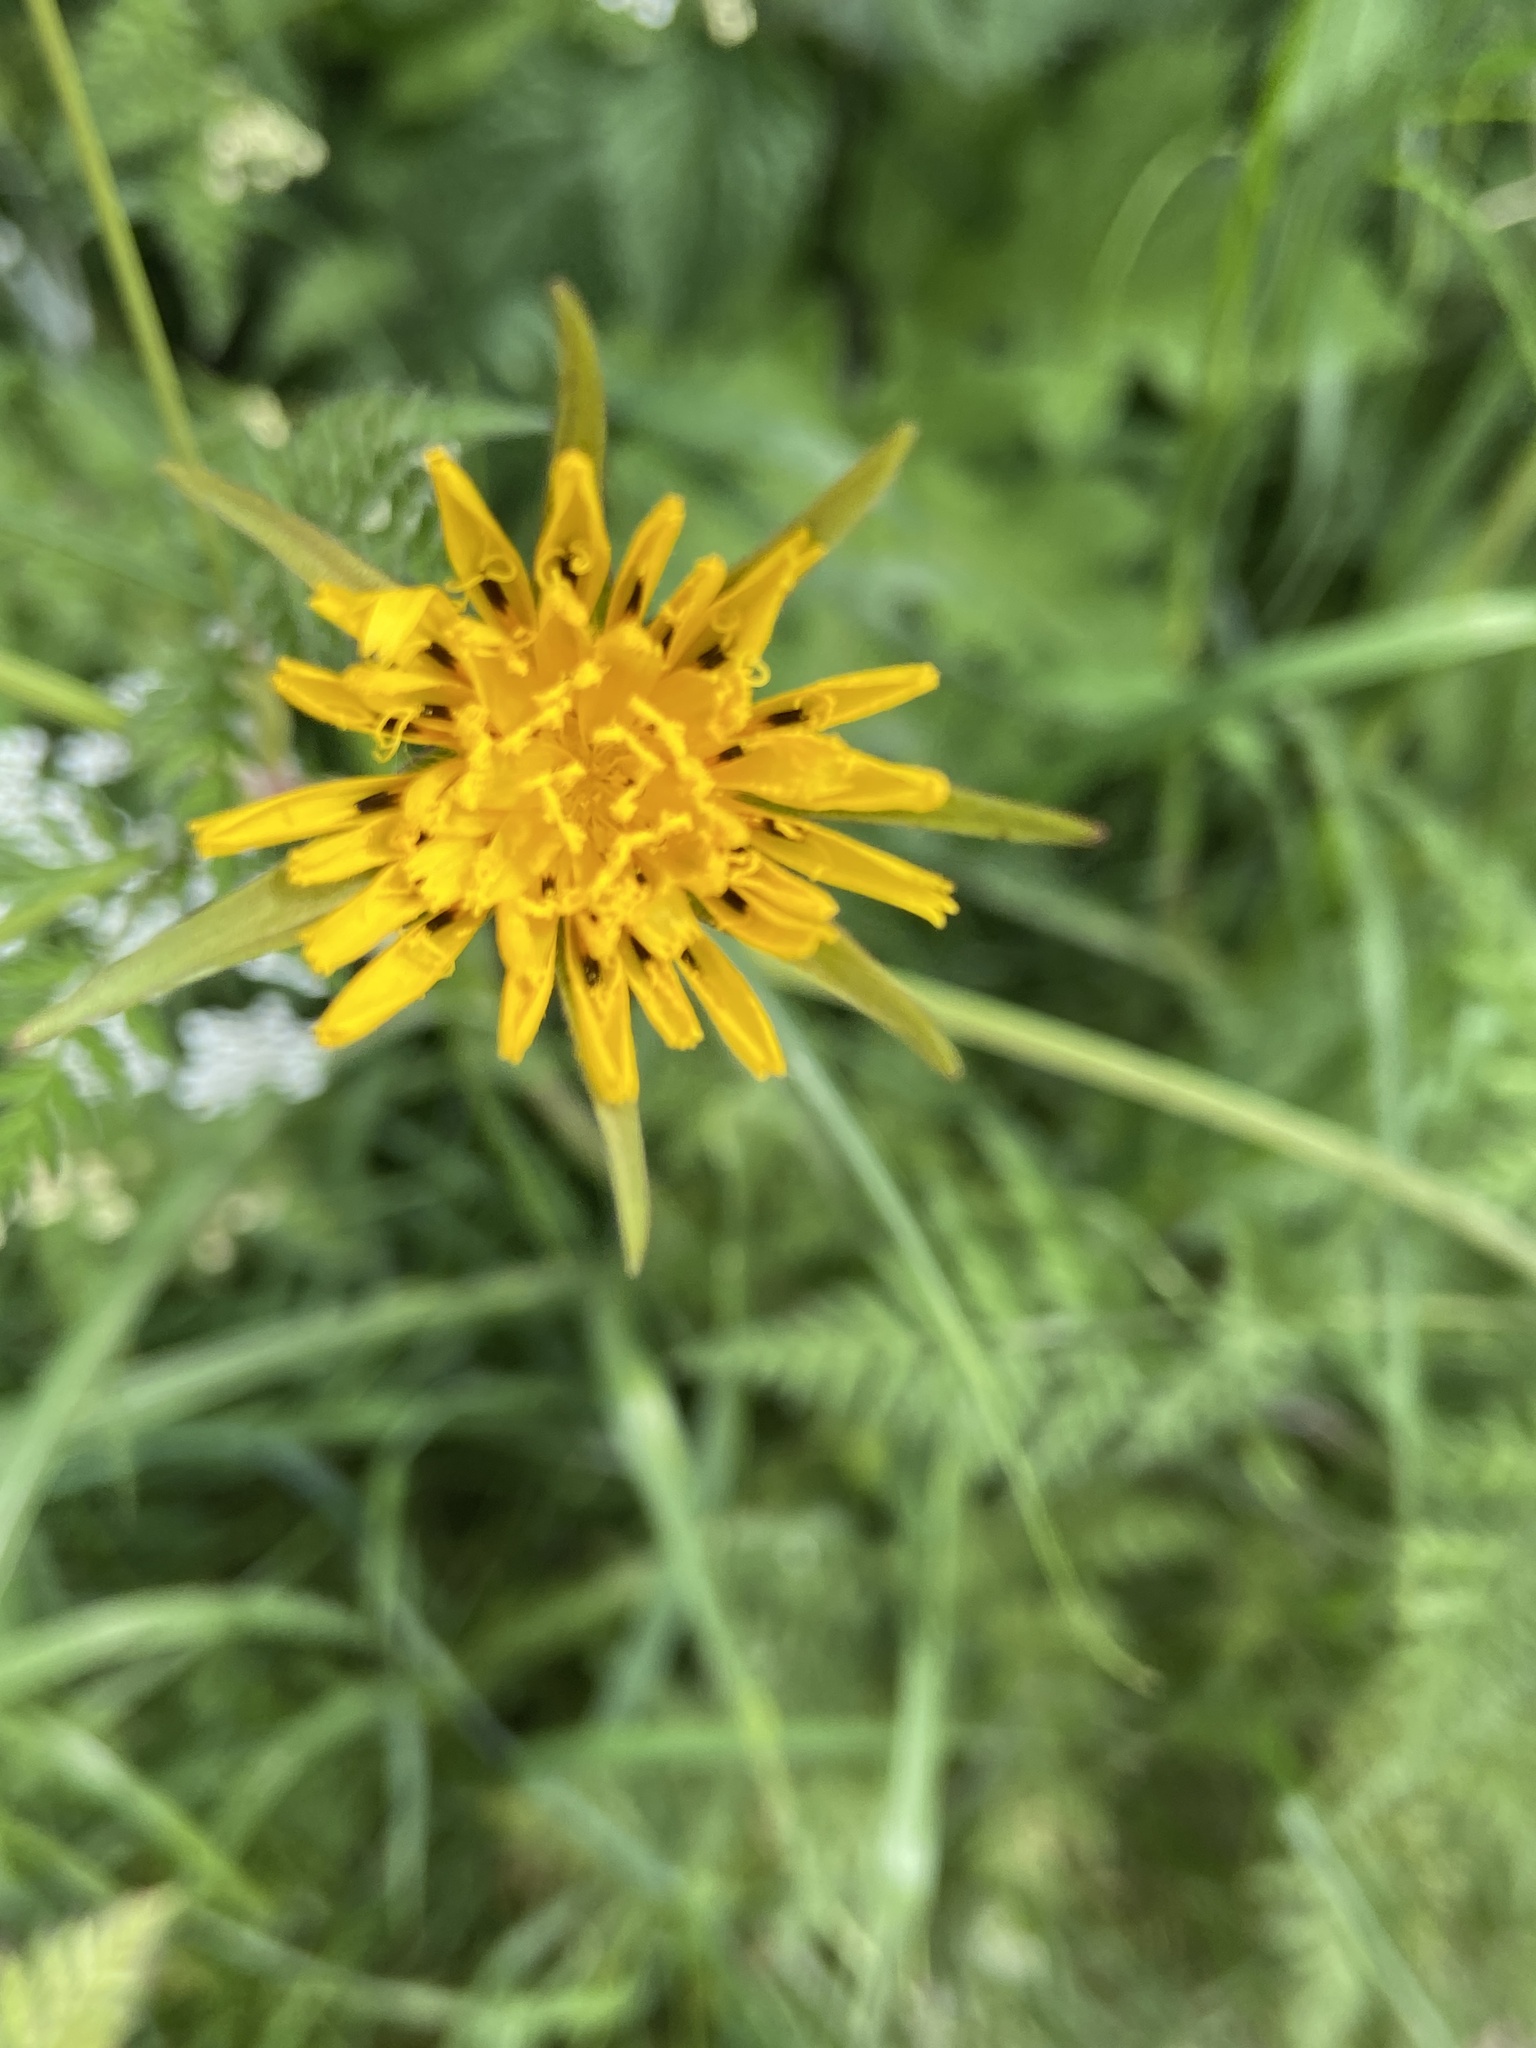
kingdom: Plantae
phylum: Tracheophyta
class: Magnoliopsida
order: Asterales
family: Asteraceae
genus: Tragopogon
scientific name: Tragopogon minor
